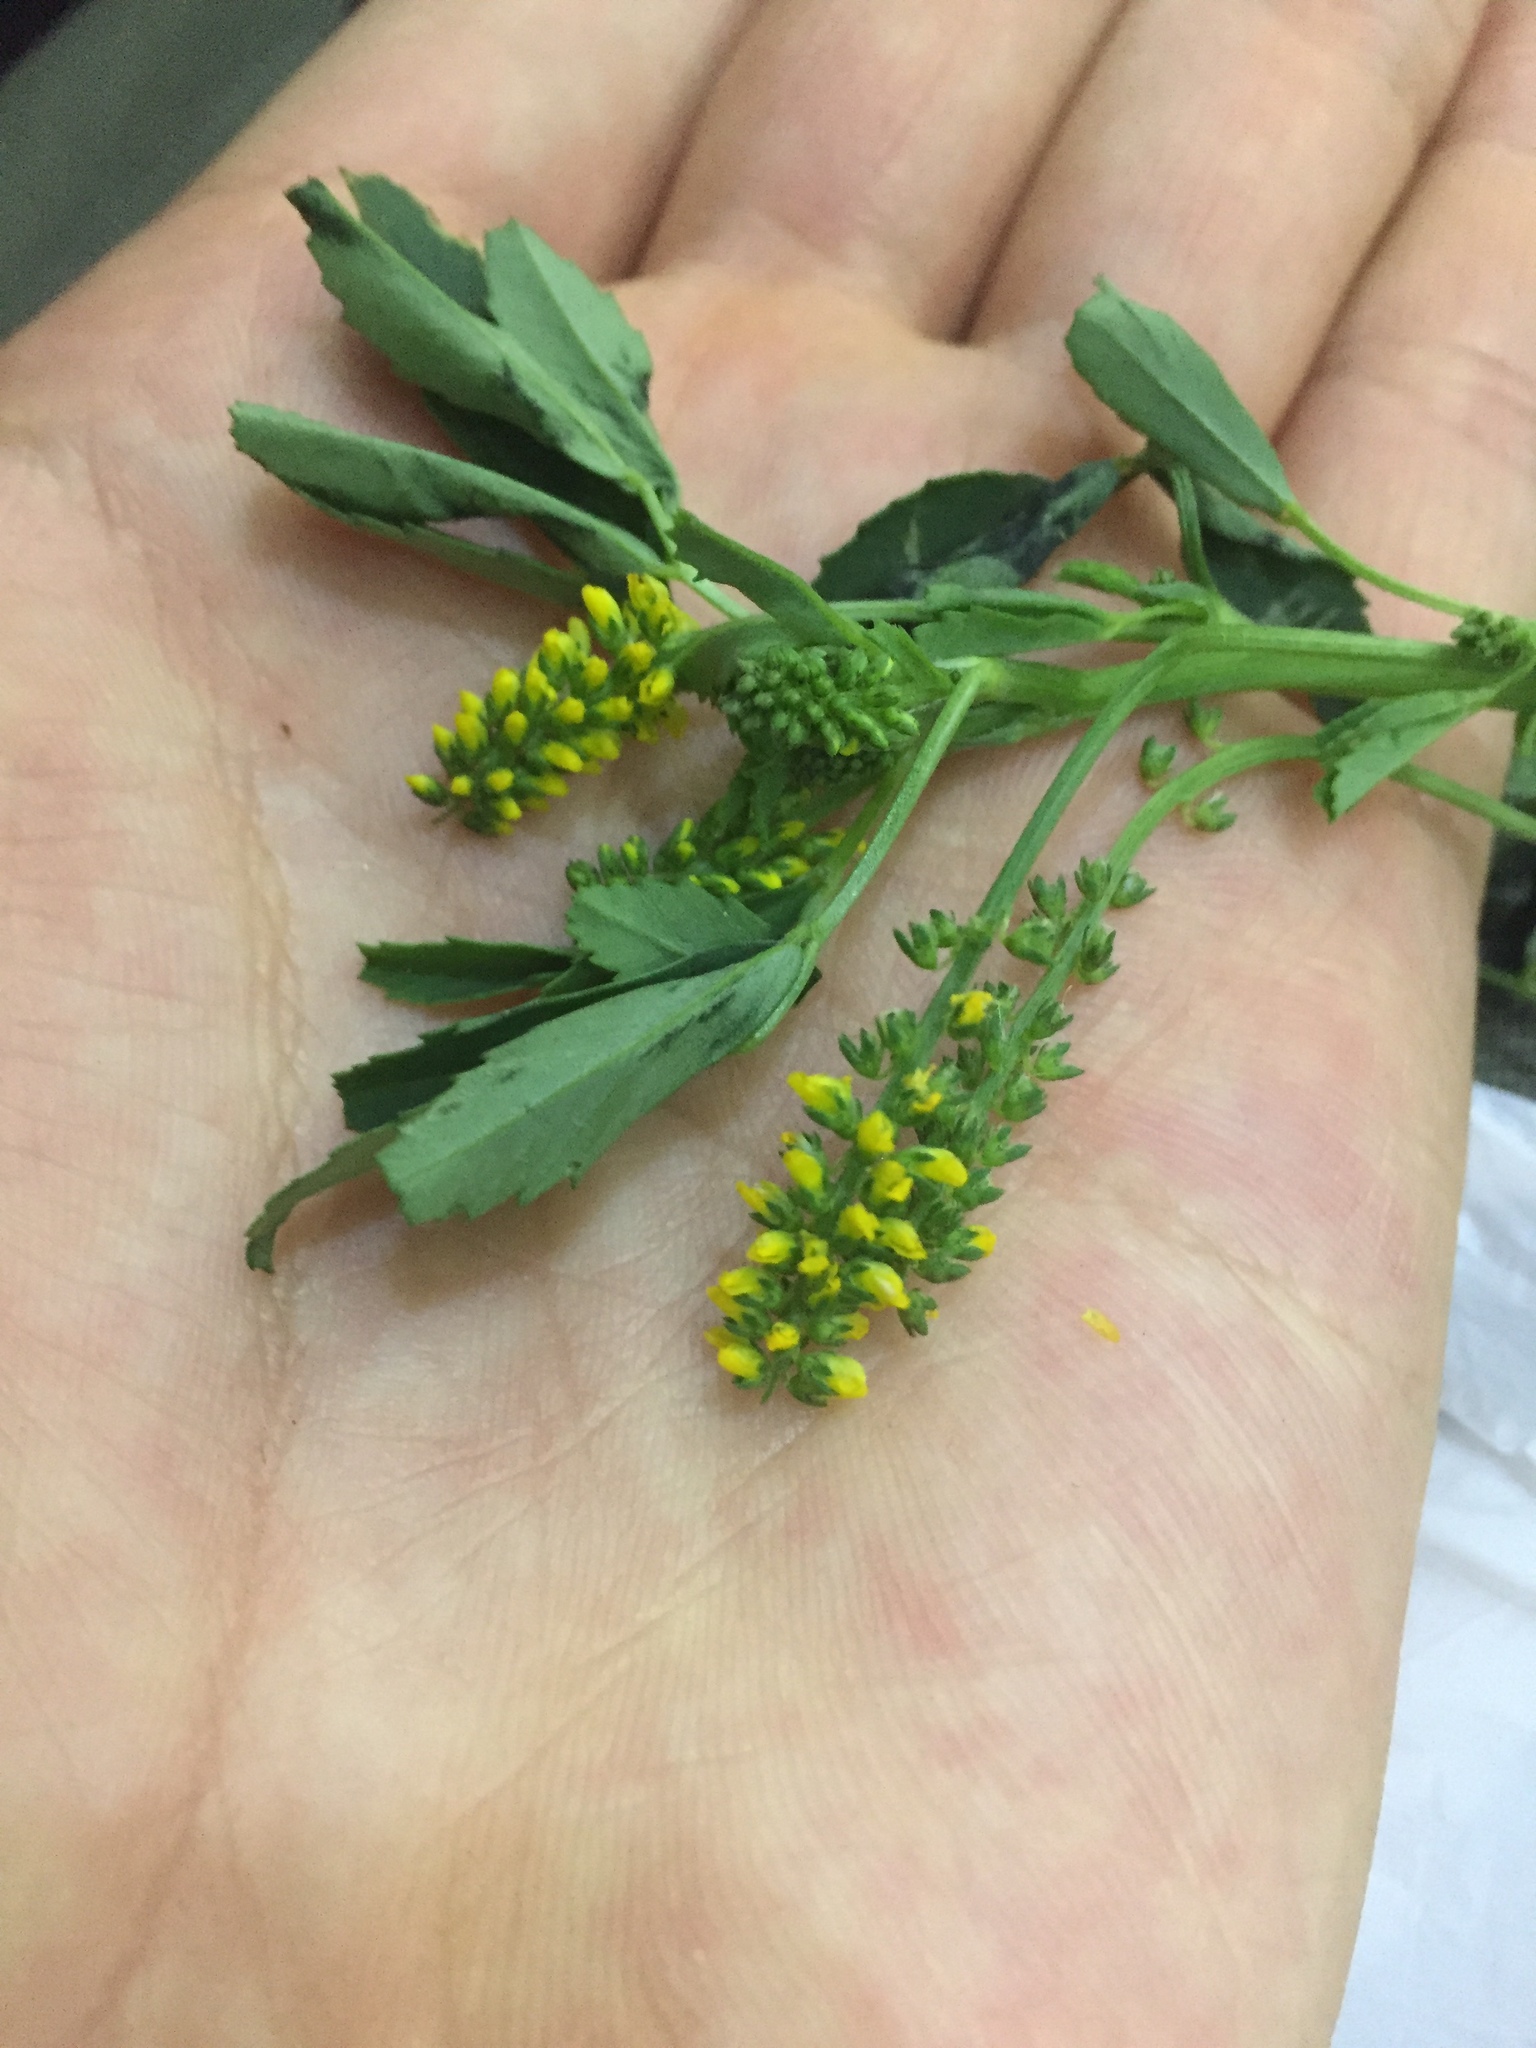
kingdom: Plantae
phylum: Tracheophyta
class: Magnoliopsida
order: Fabales
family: Fabaceae
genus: Melilotus
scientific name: Melilotus indicus
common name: Small melilot
